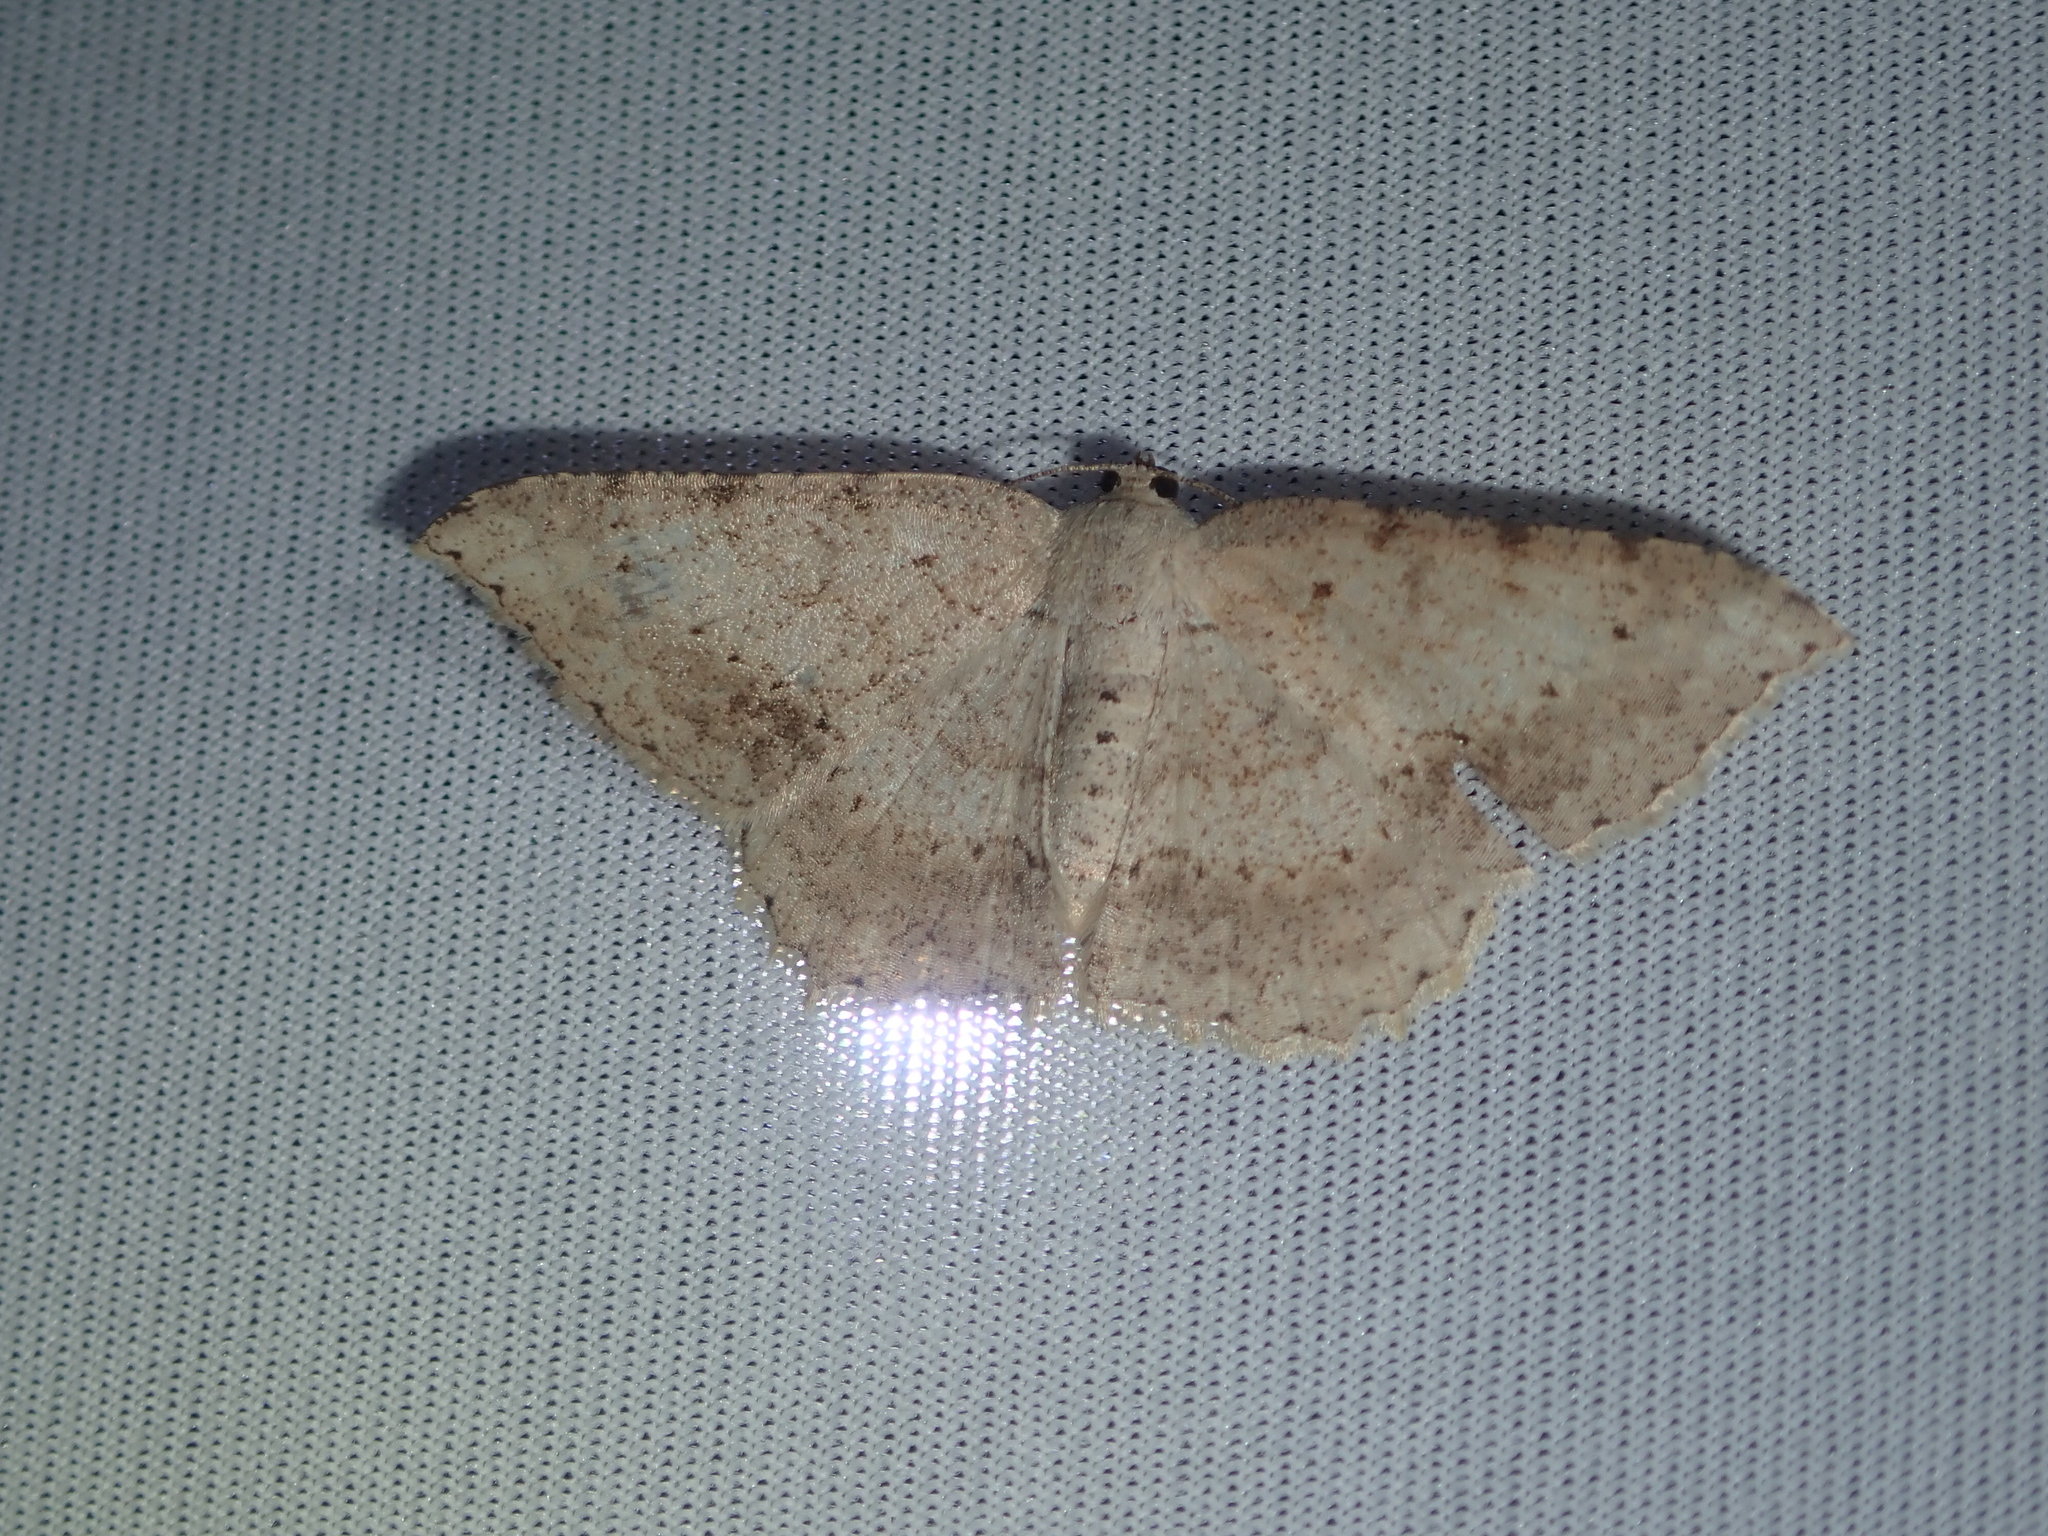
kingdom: Animalia
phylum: Arthropoda
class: Insecta
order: Lepidoptera
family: Geometridae
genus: Luxiaria
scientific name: Luxiaria ochrophara
